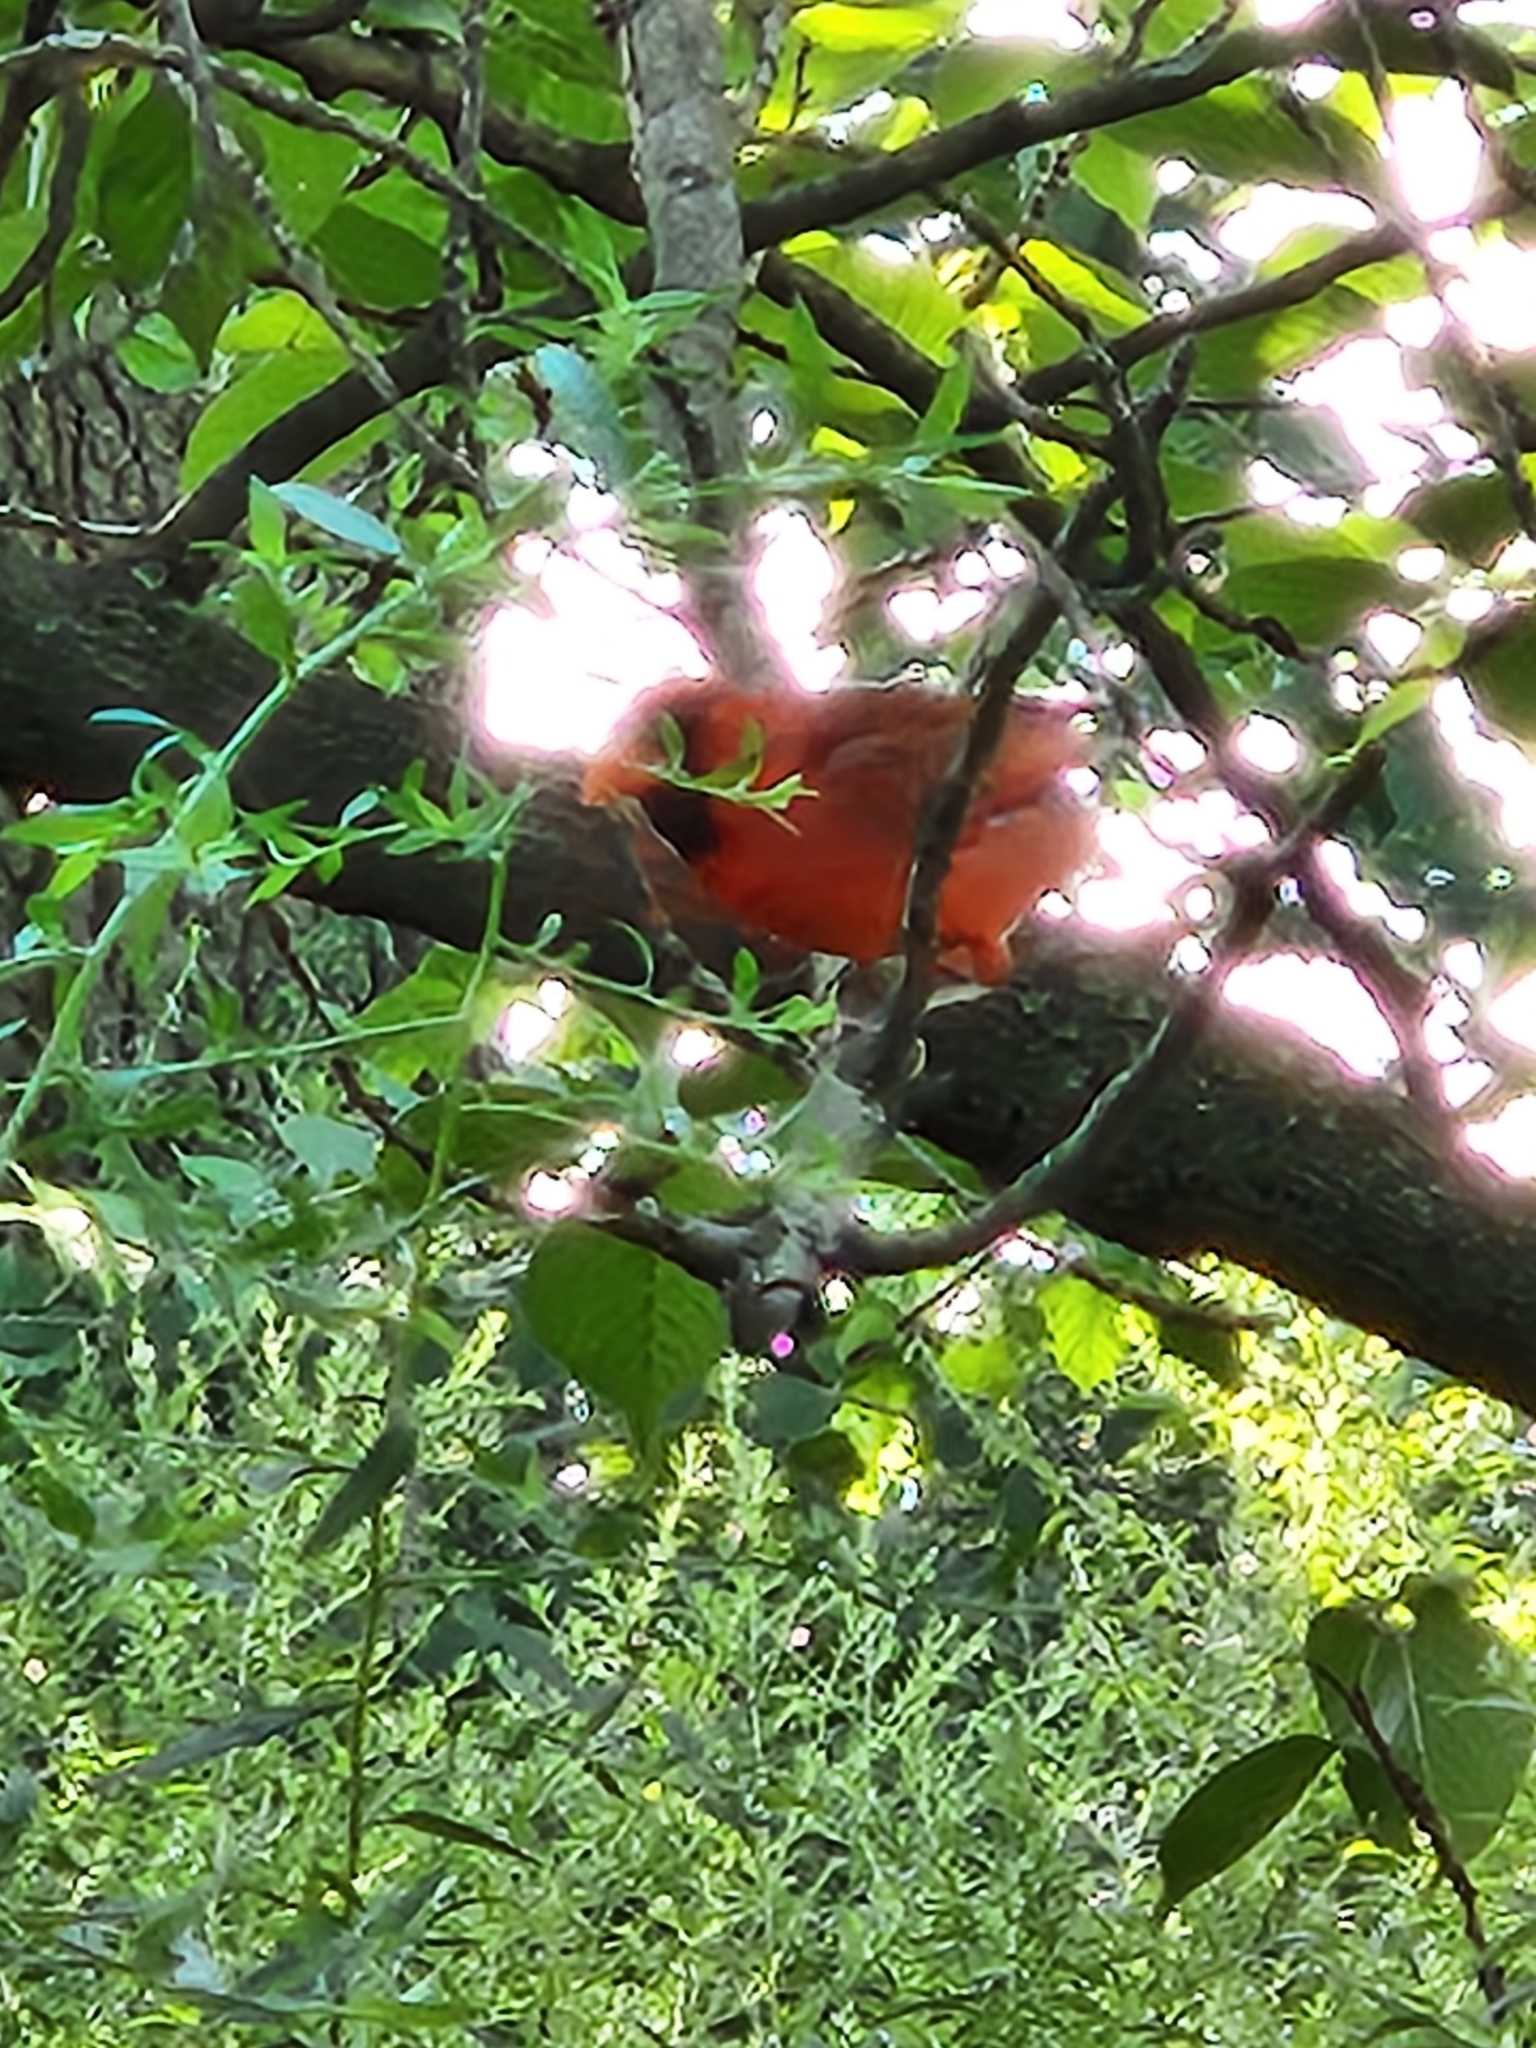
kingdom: Animalia
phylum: Chordata
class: Aves
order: Passeriformes
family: Cardinalidae
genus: Cardinalis
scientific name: Cardinalis cardinalis
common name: Northern cardinal
